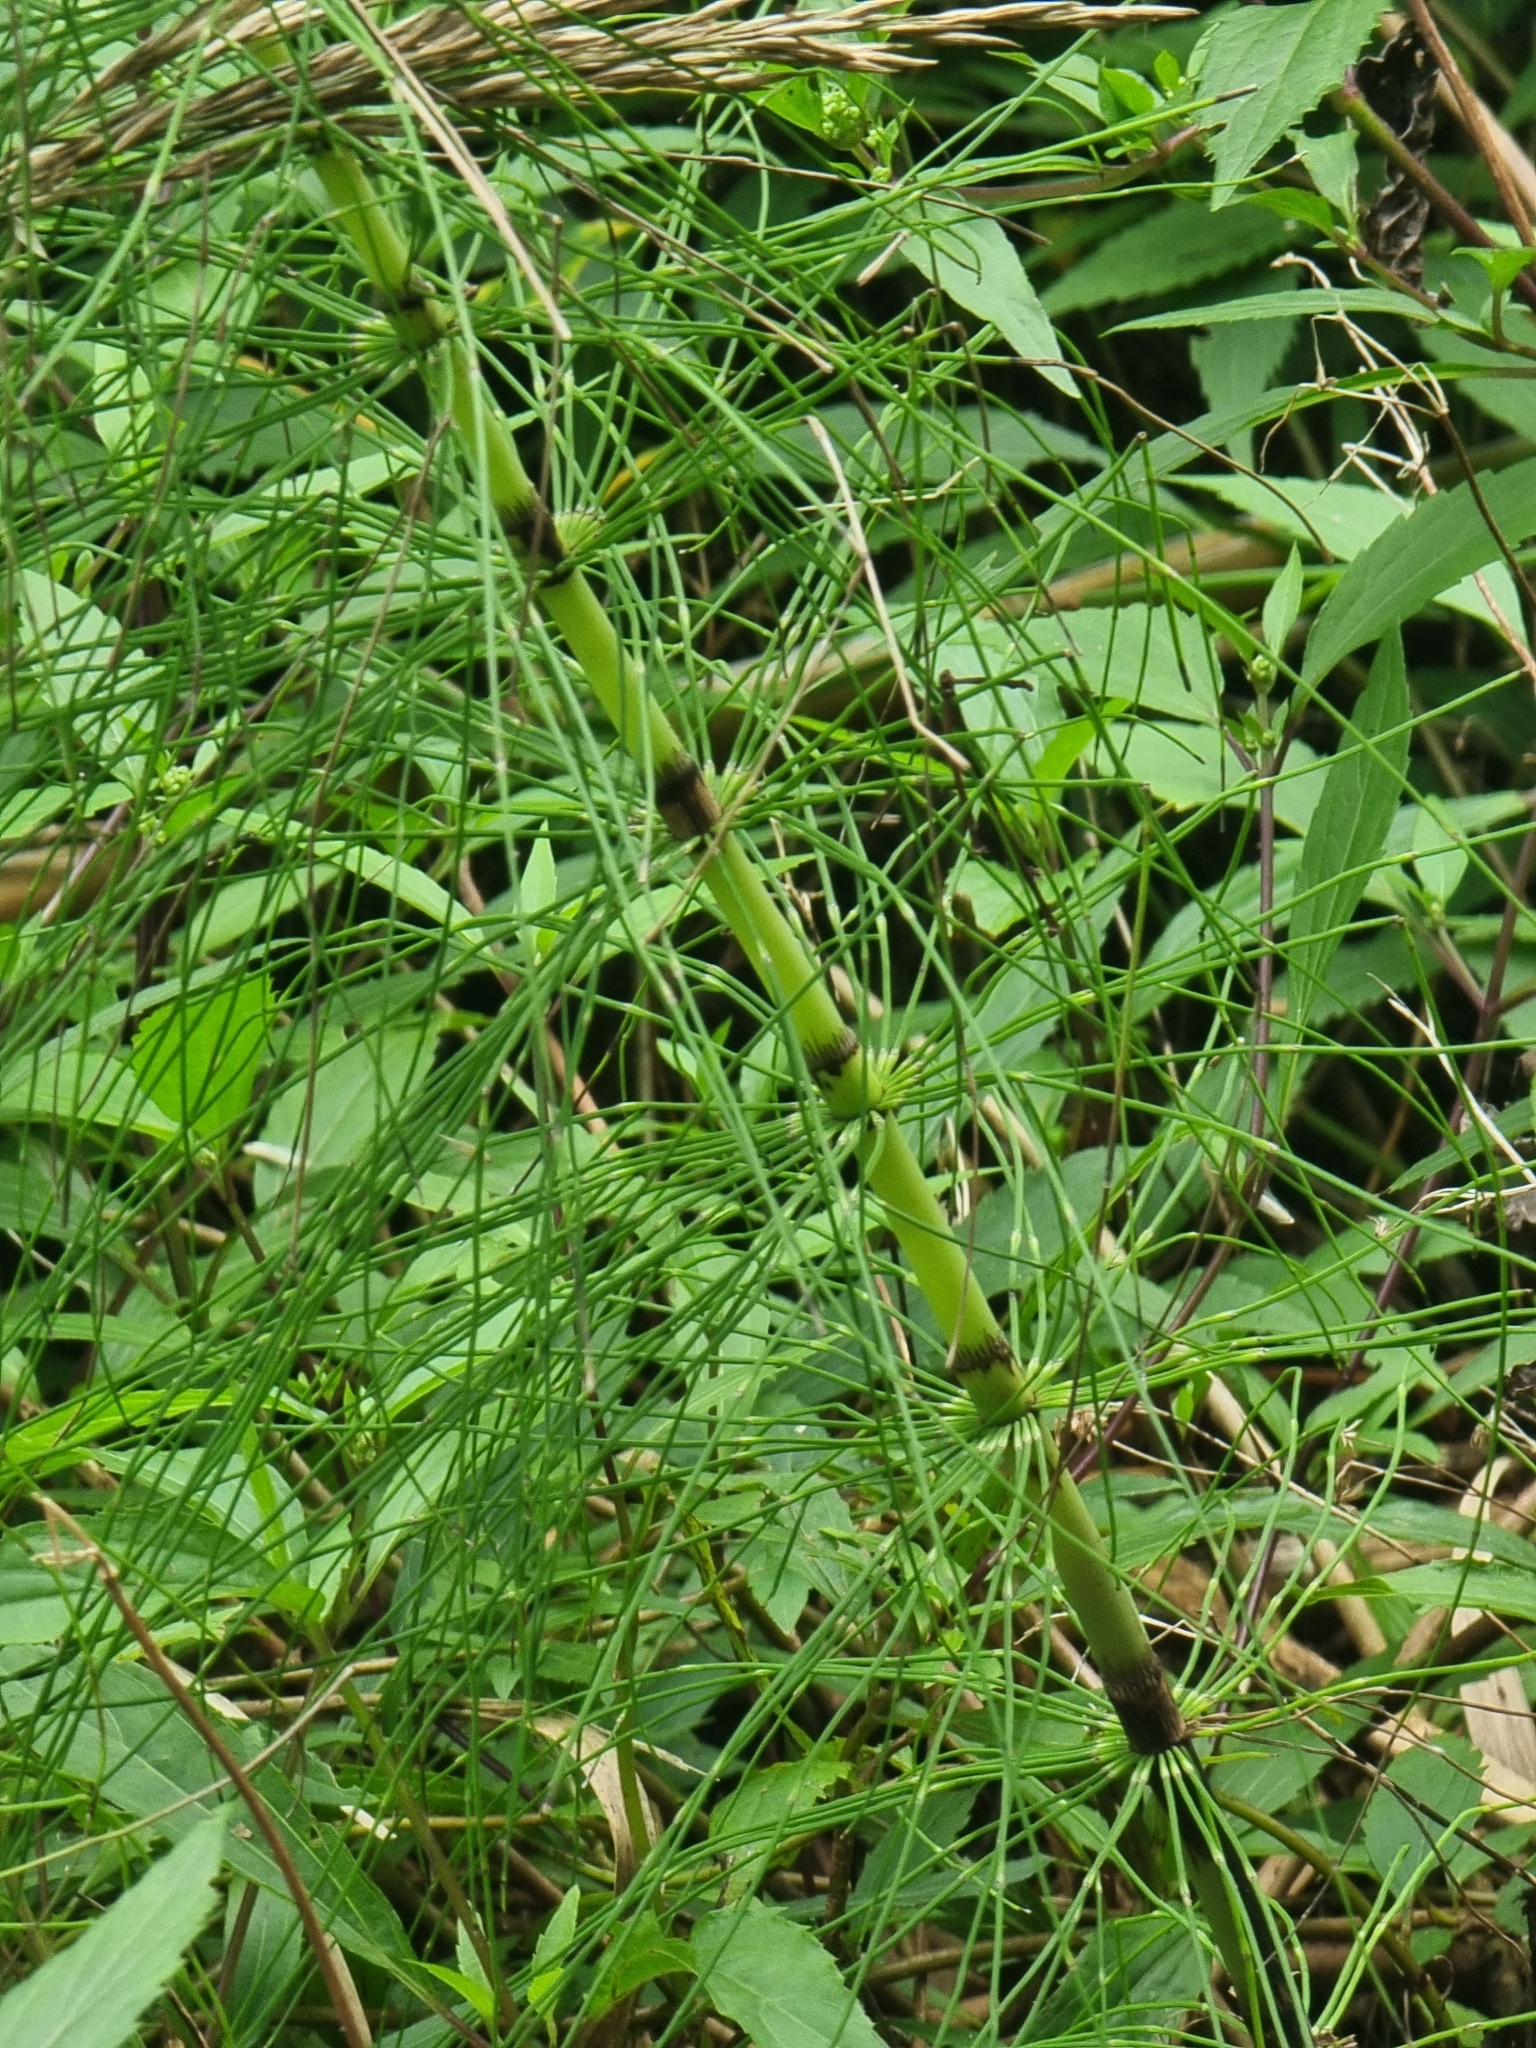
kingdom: Plantae
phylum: Tracheophyta
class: Polypodiopsida
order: Equisetales
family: Equisetaceae
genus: Equisetum
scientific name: Equisetum telmateia
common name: Great horsetail
